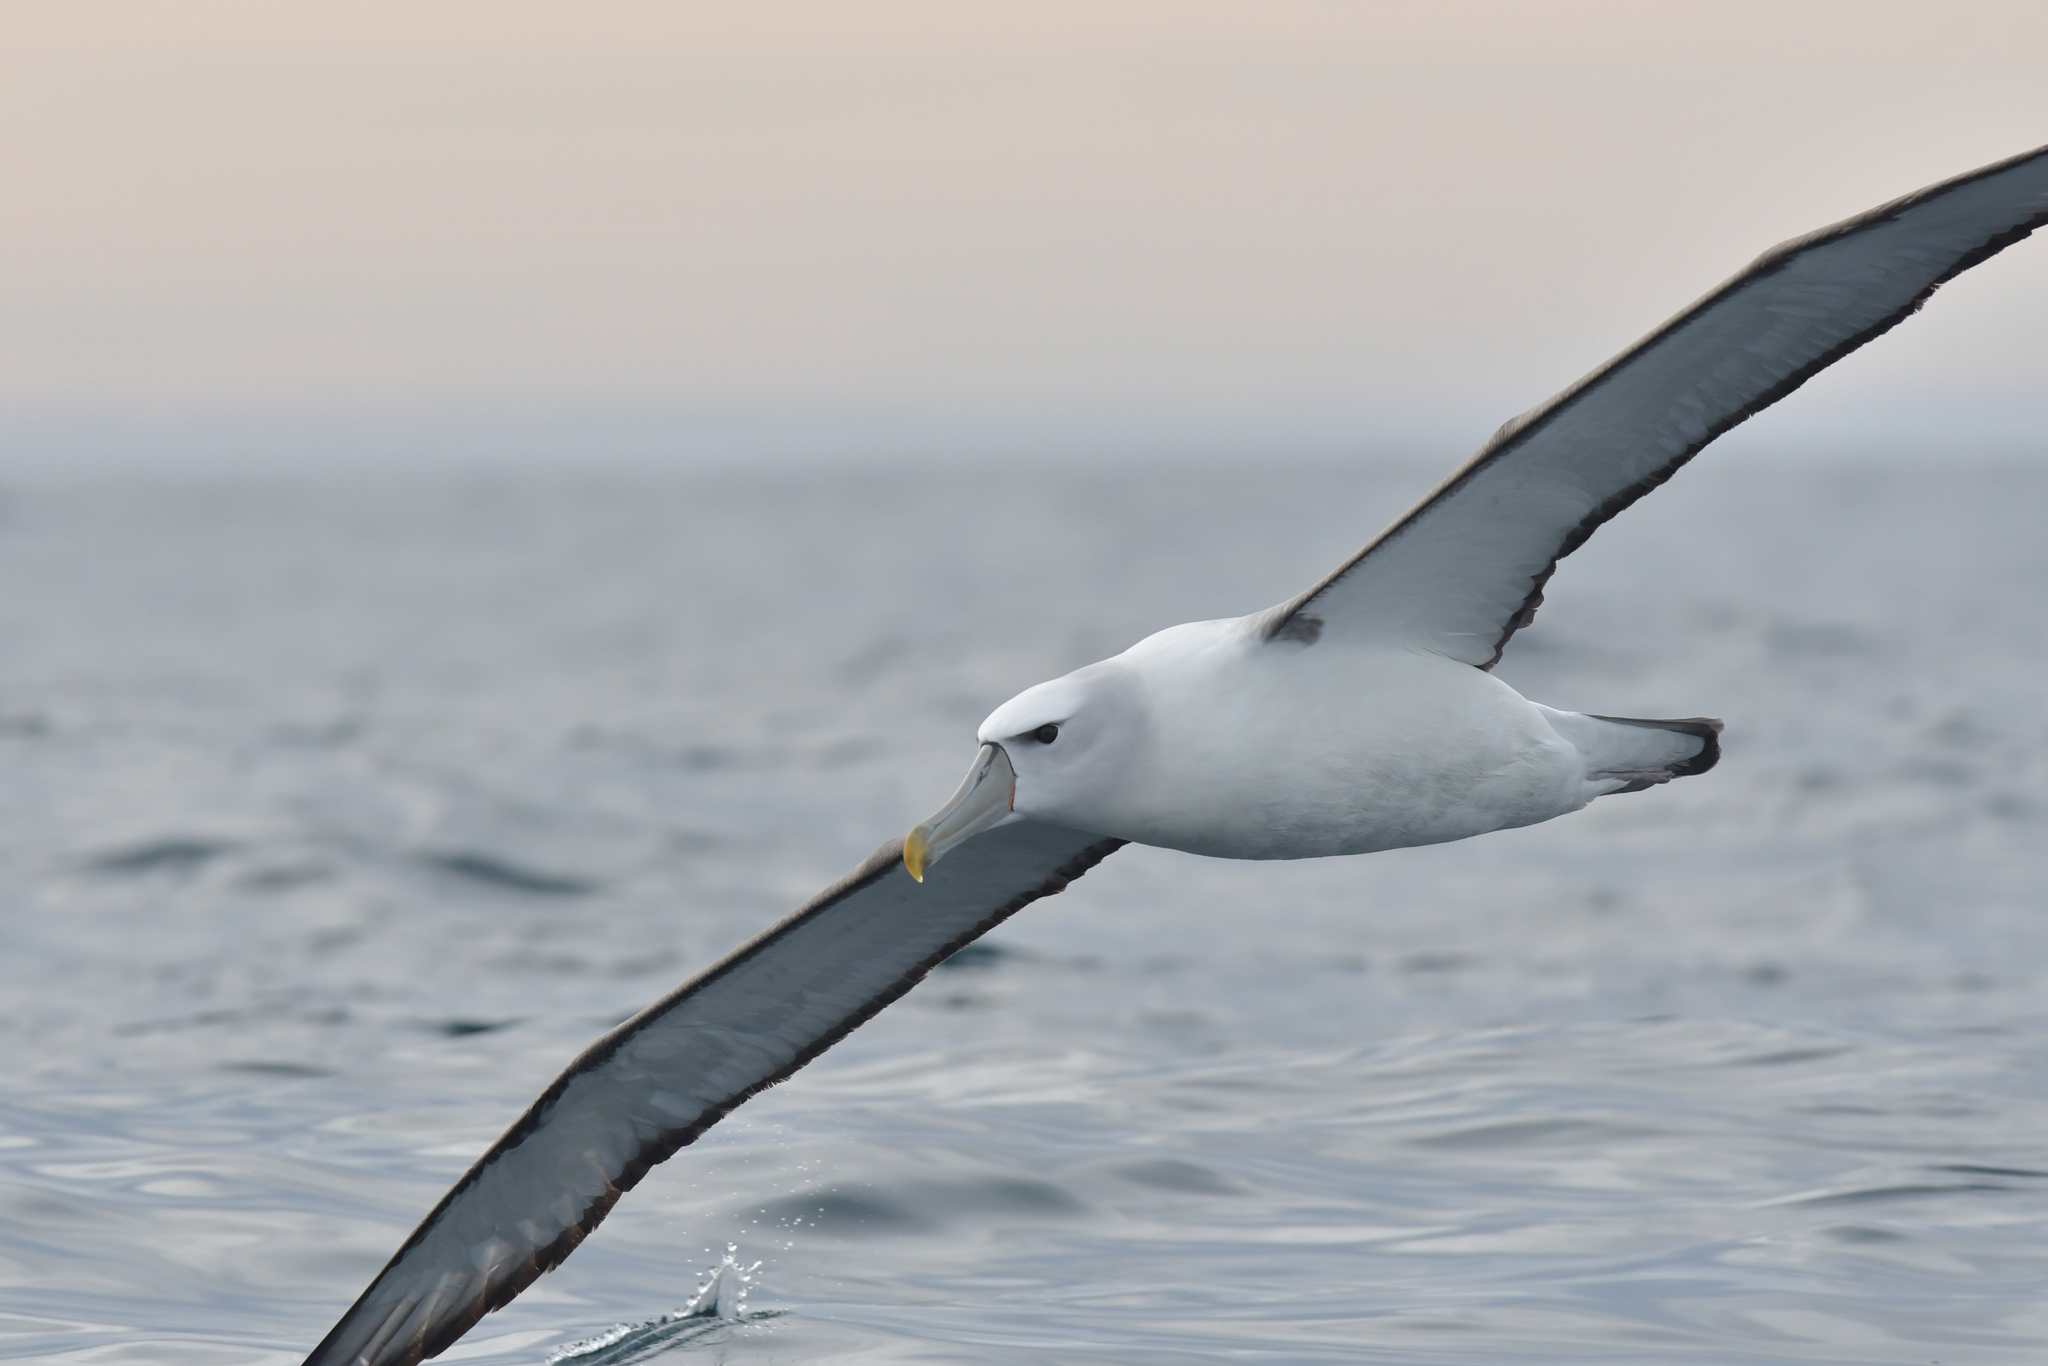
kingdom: Animalia
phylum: Chordata
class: Aves
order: Procellariiformes
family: Diomedeidae
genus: Thalassarche
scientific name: Thalassarche cauta
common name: Shy albatross
